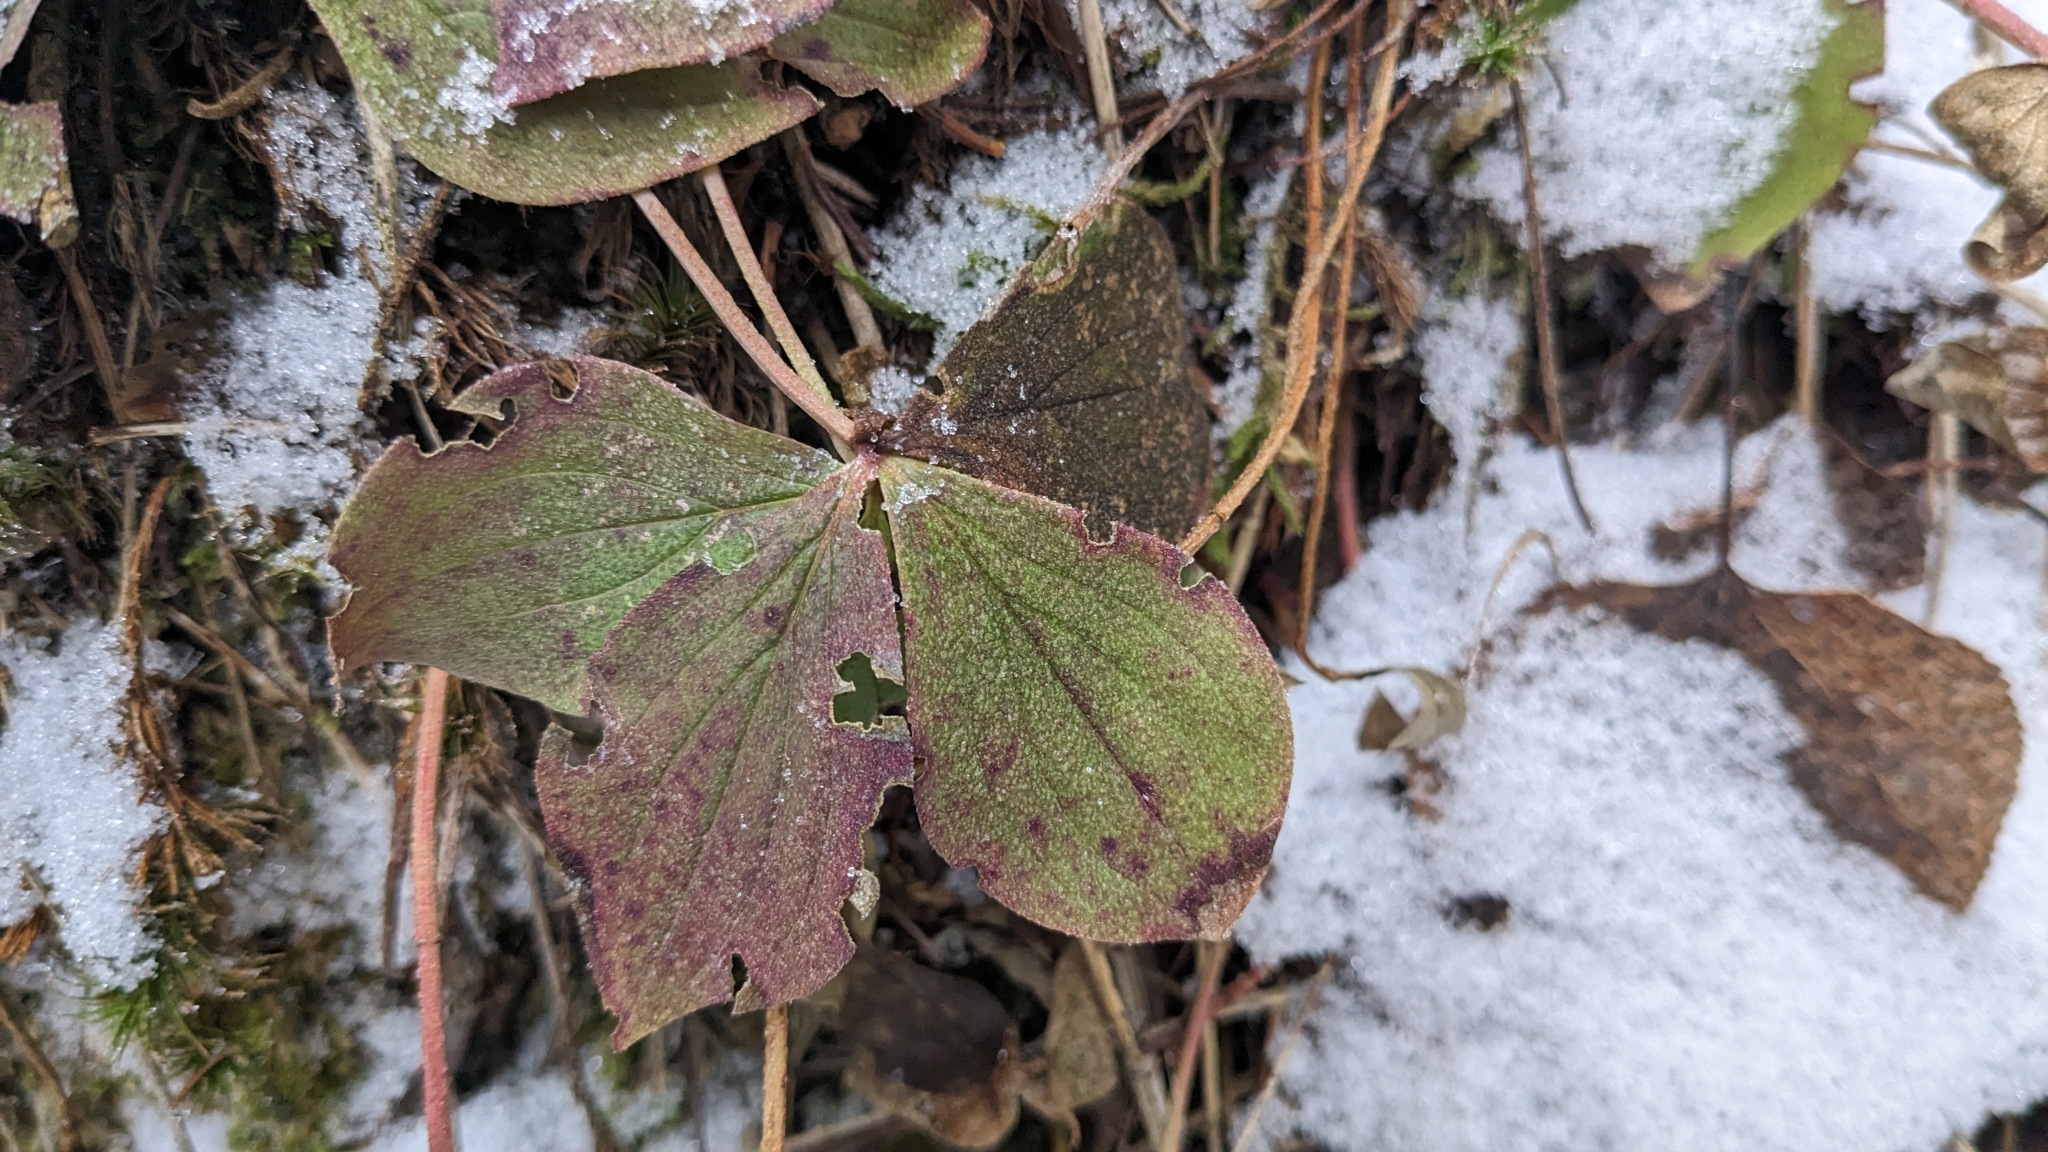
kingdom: Plantae
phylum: Tracheophyta
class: Magnoliopsida
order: Cornales
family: Cornaceae
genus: Cornus
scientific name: Cornus canadensis
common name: Creeping dogwood
